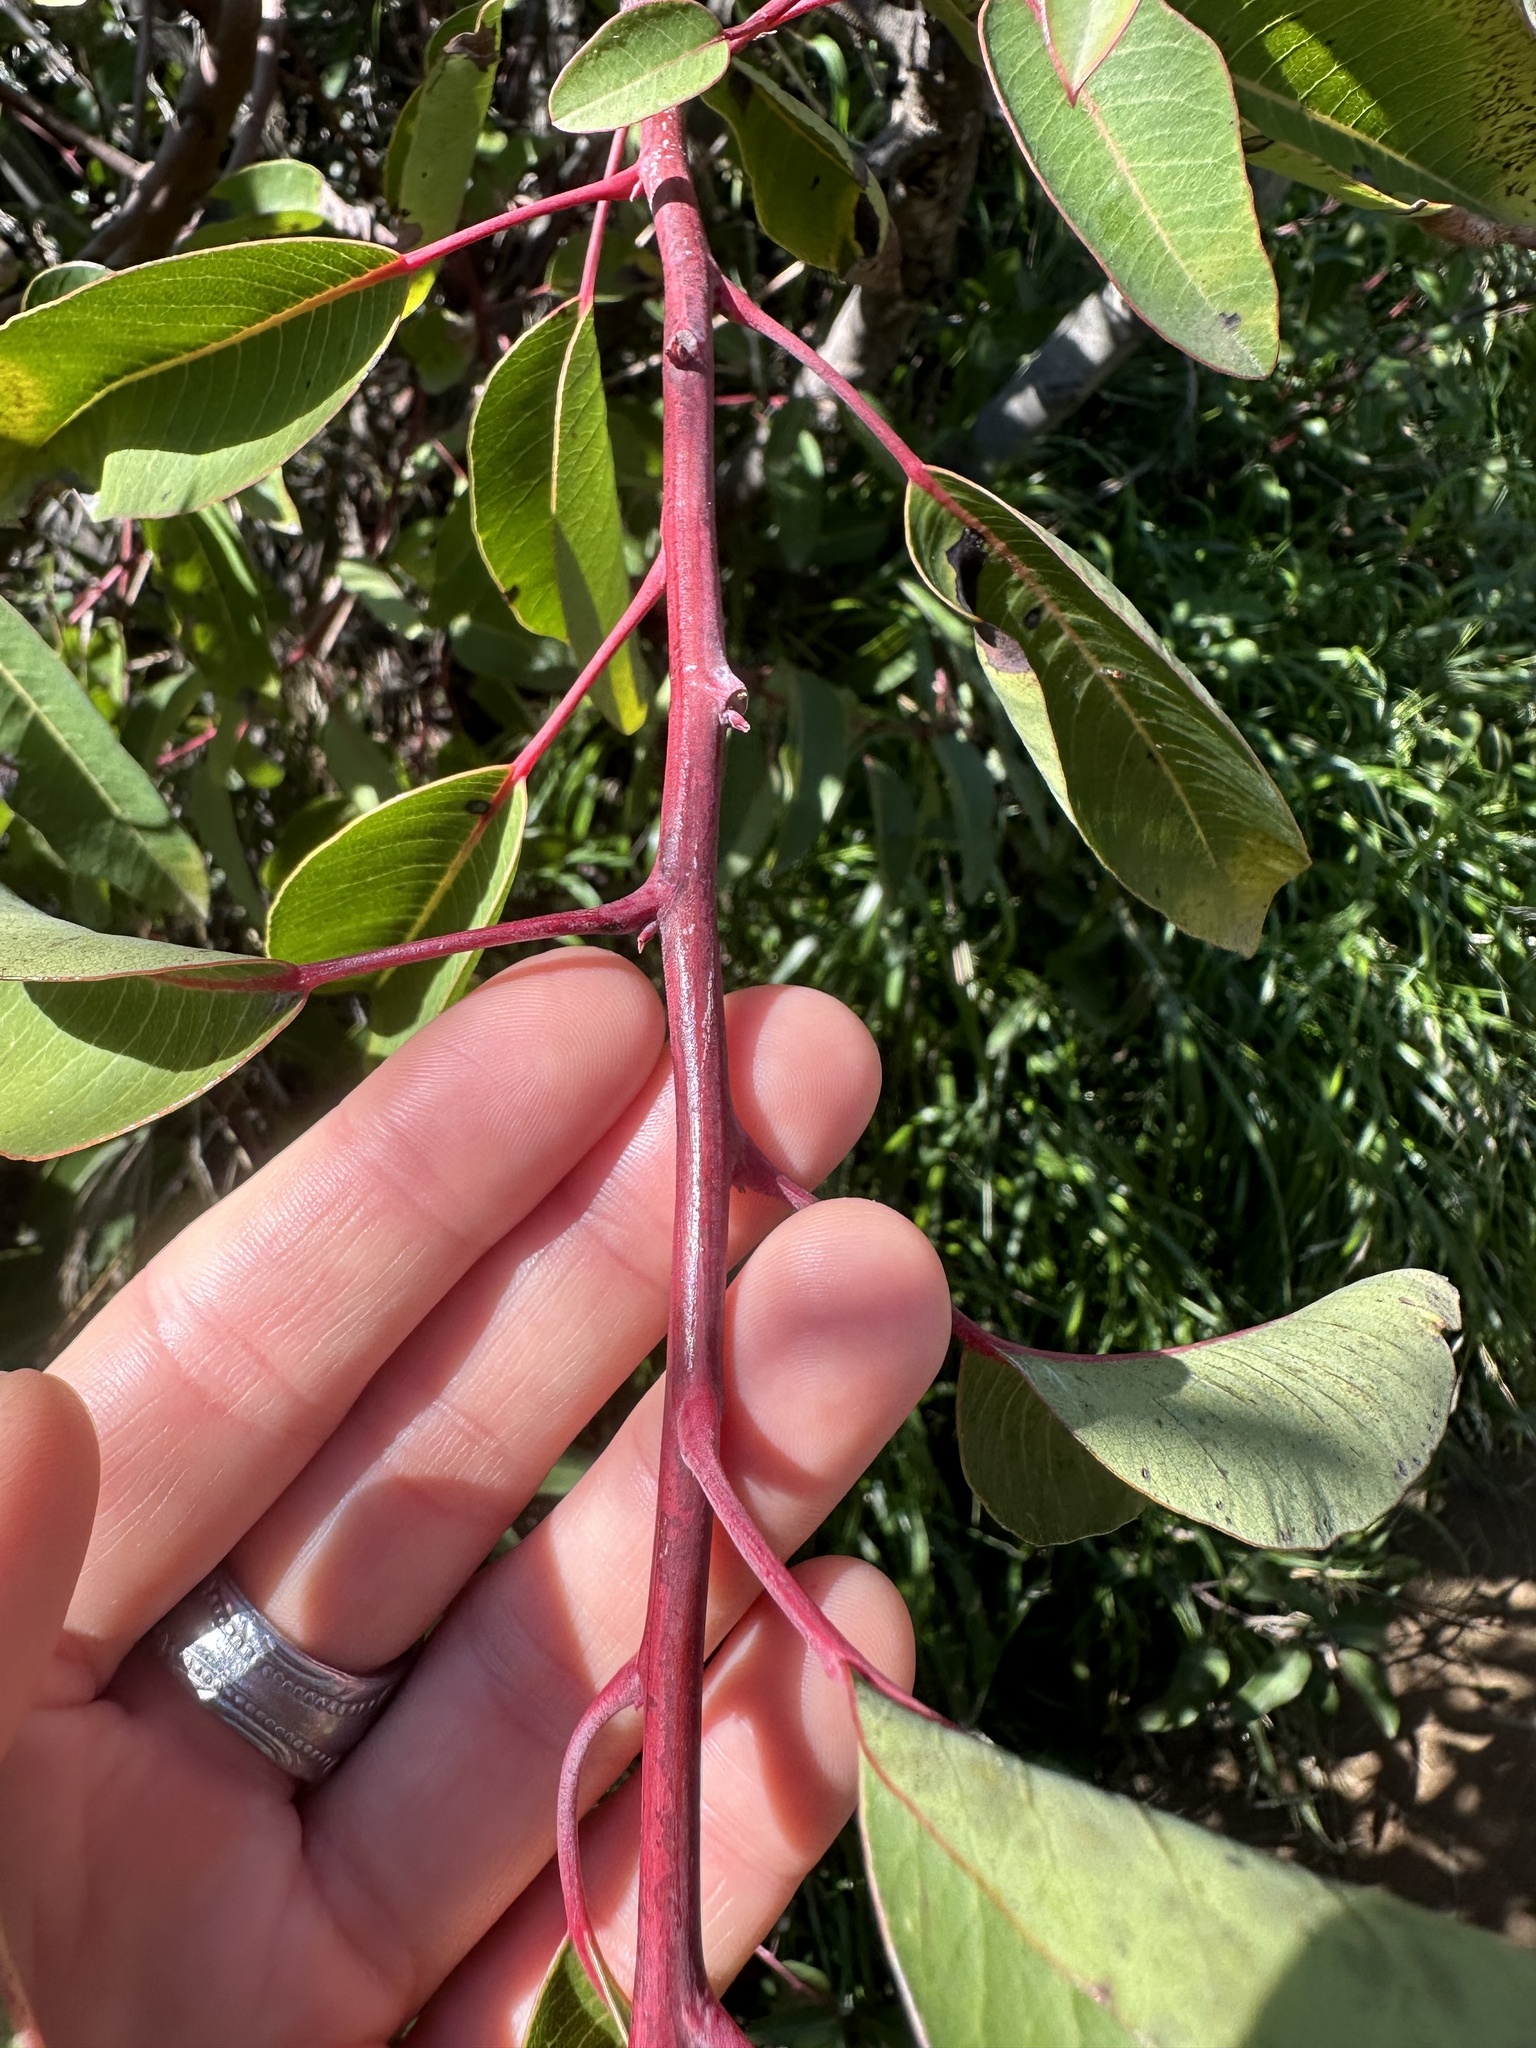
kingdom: Plantae
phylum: Tracheophyta
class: Magnoliopsida
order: Sapindales
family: Anacardiaceae
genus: Malosma
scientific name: Malosma laurina
